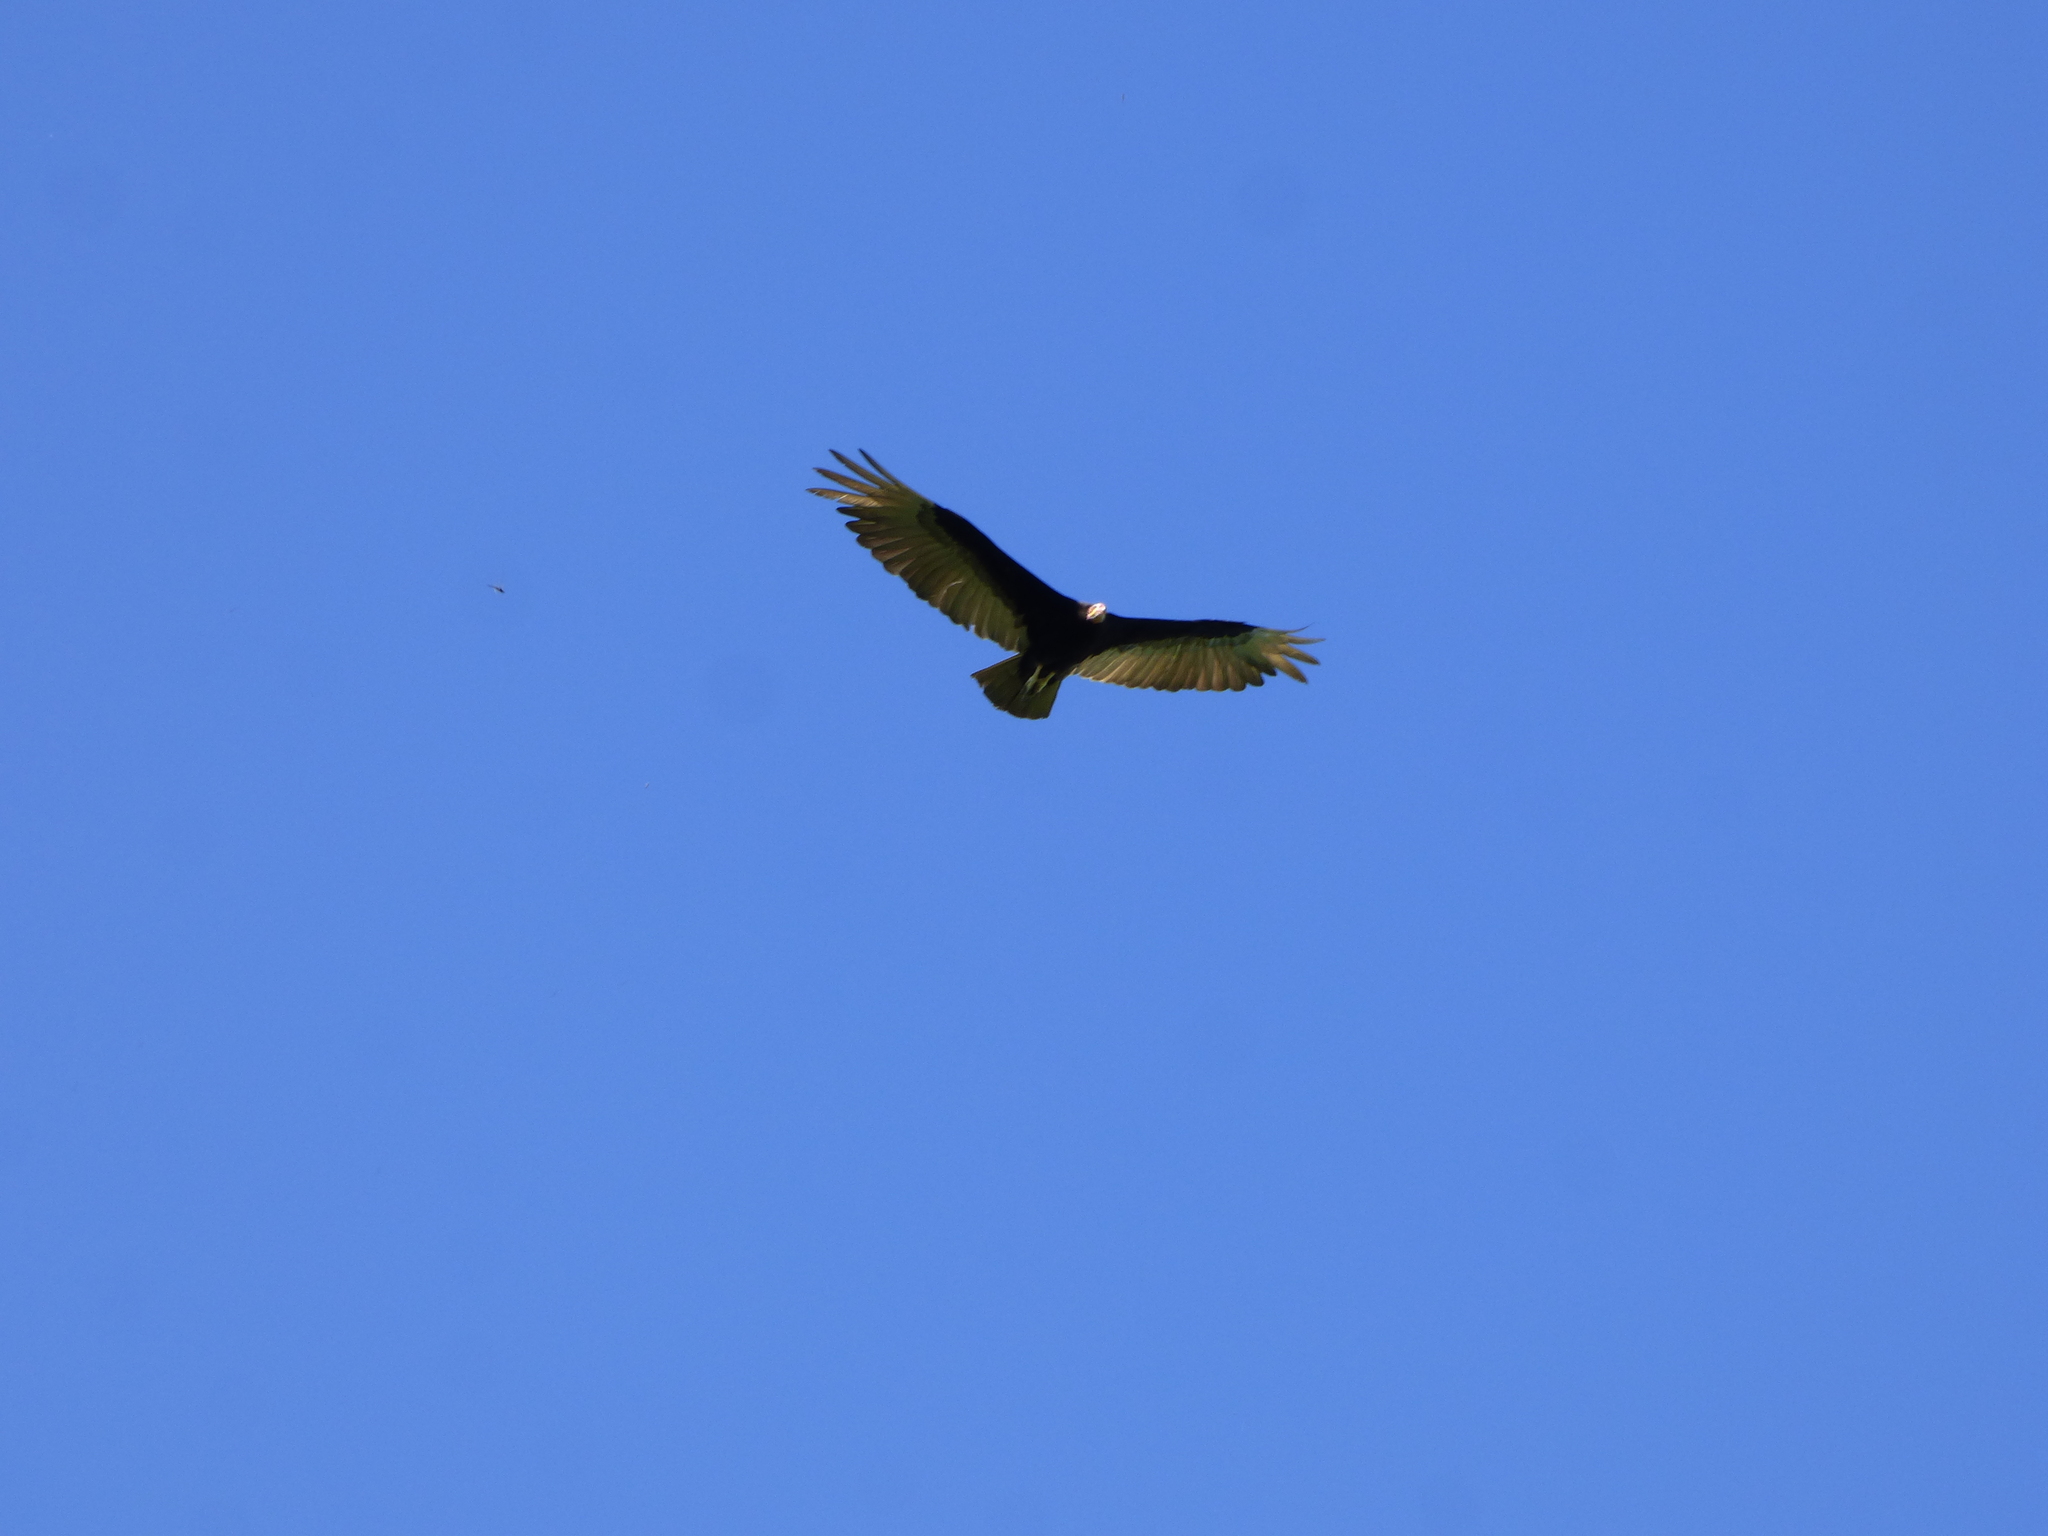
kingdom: Animalia
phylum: Chordata
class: Aves
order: Accipitriformes
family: Cathartidae
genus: Cathartes
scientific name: Cathartes burrovianus
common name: Lesser yellow-headed vulture
